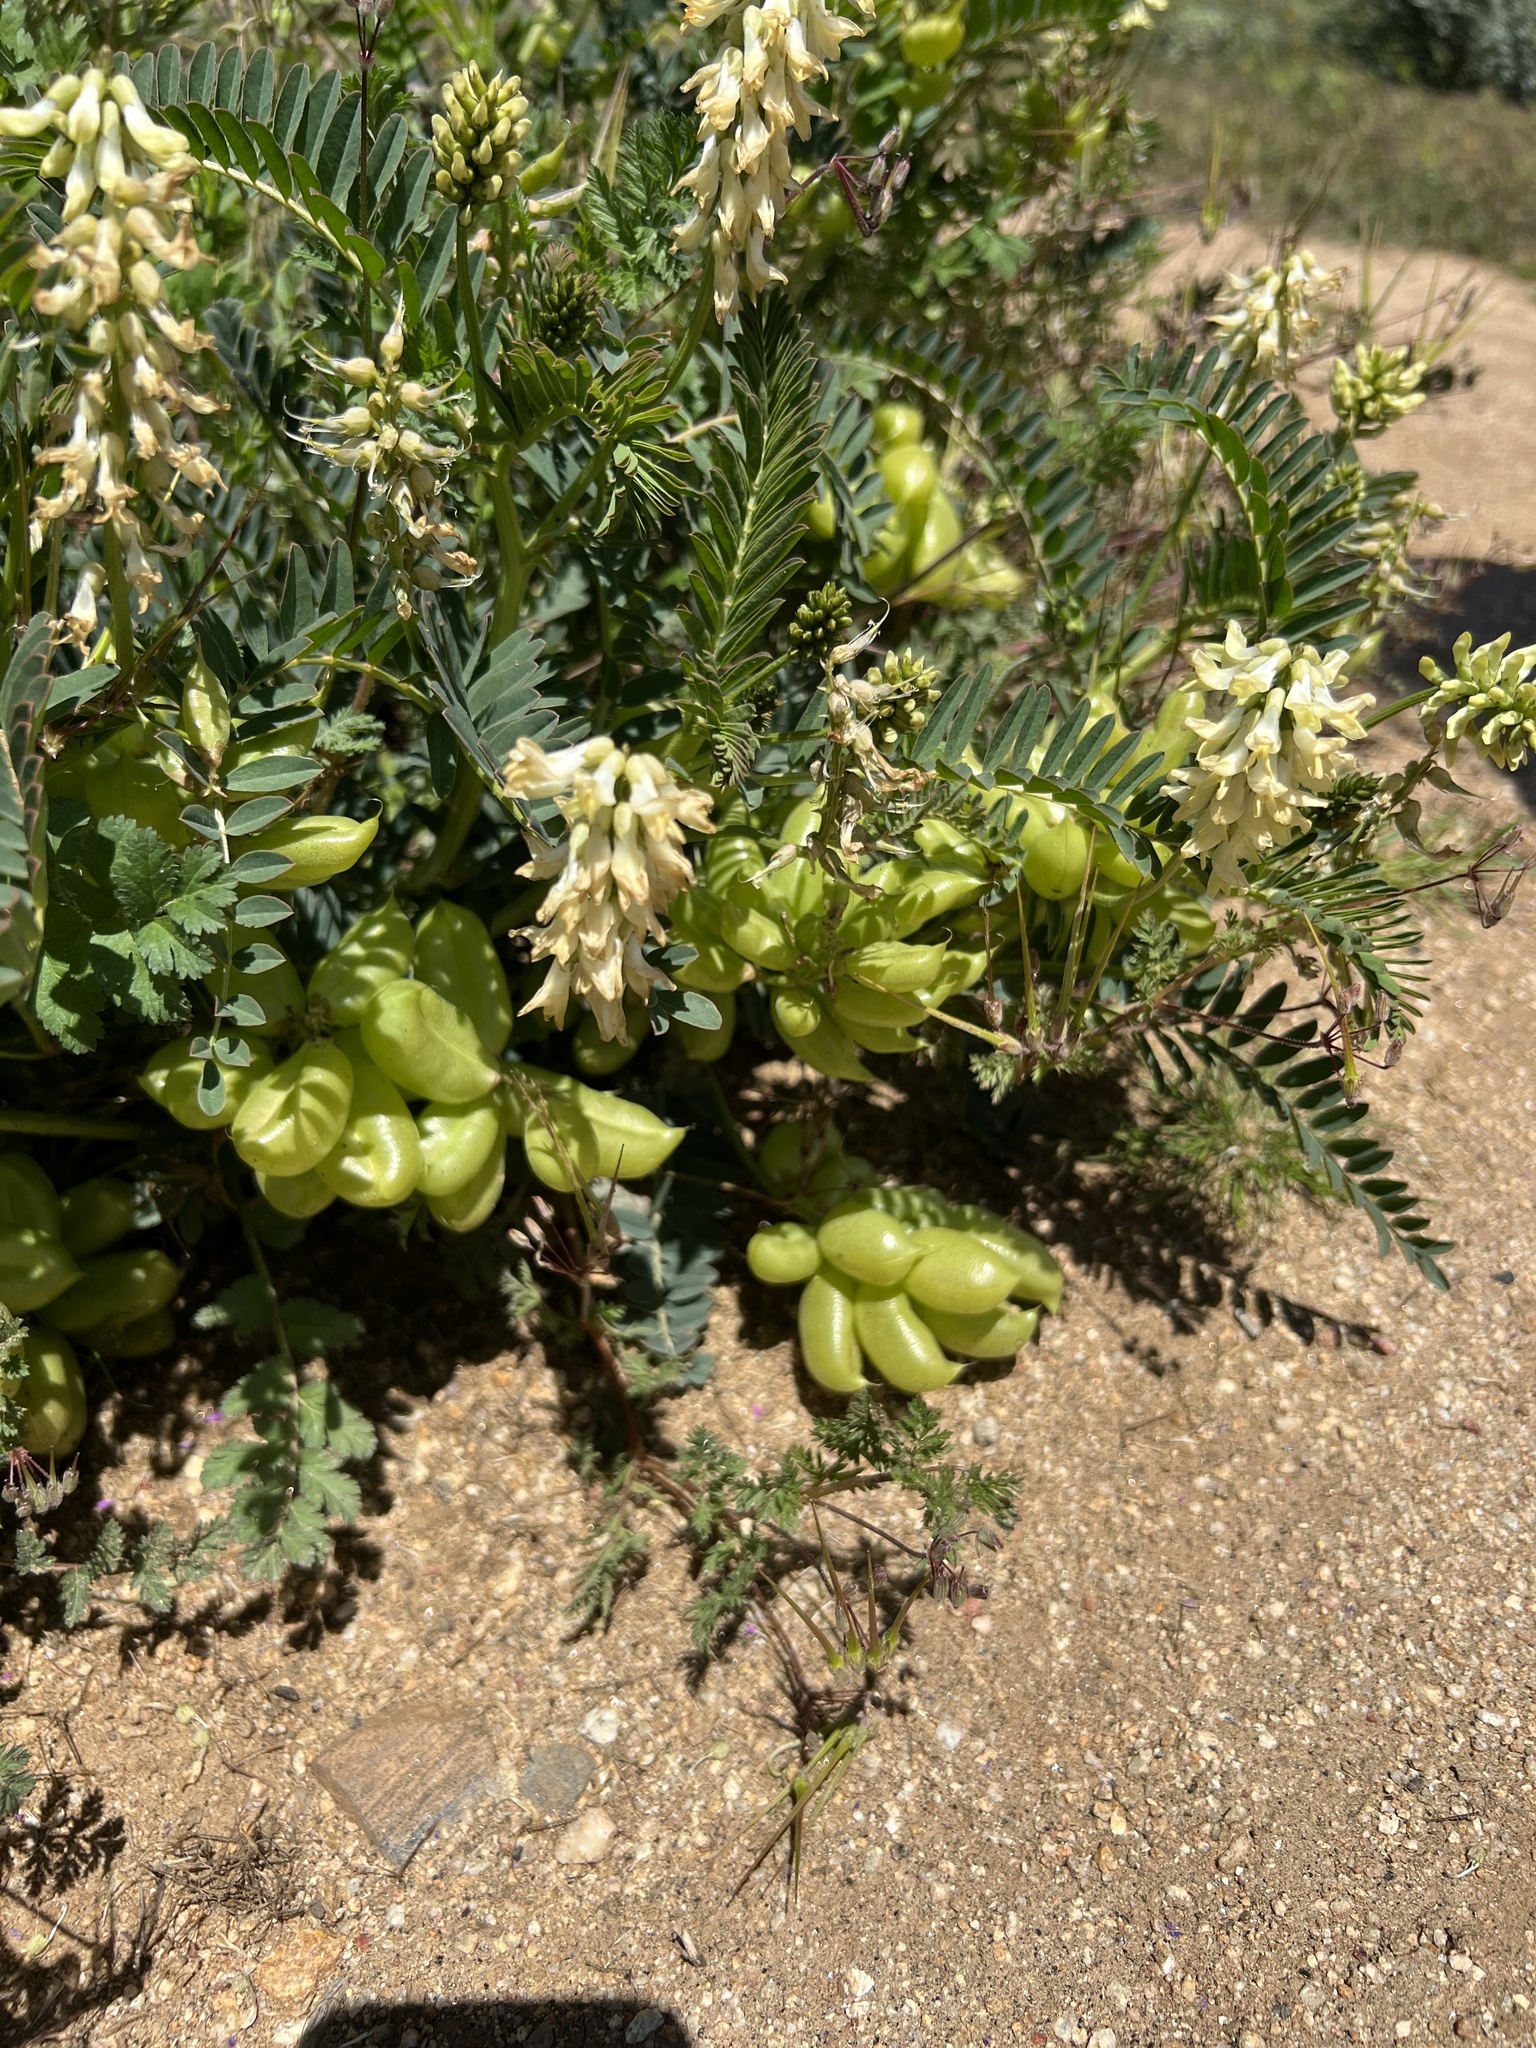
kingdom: Plantae
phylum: Tracheophyta
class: Magnoliopsida
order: Fabales
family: Fabaceae
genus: Astragalus
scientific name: Astragalus pomonensis
